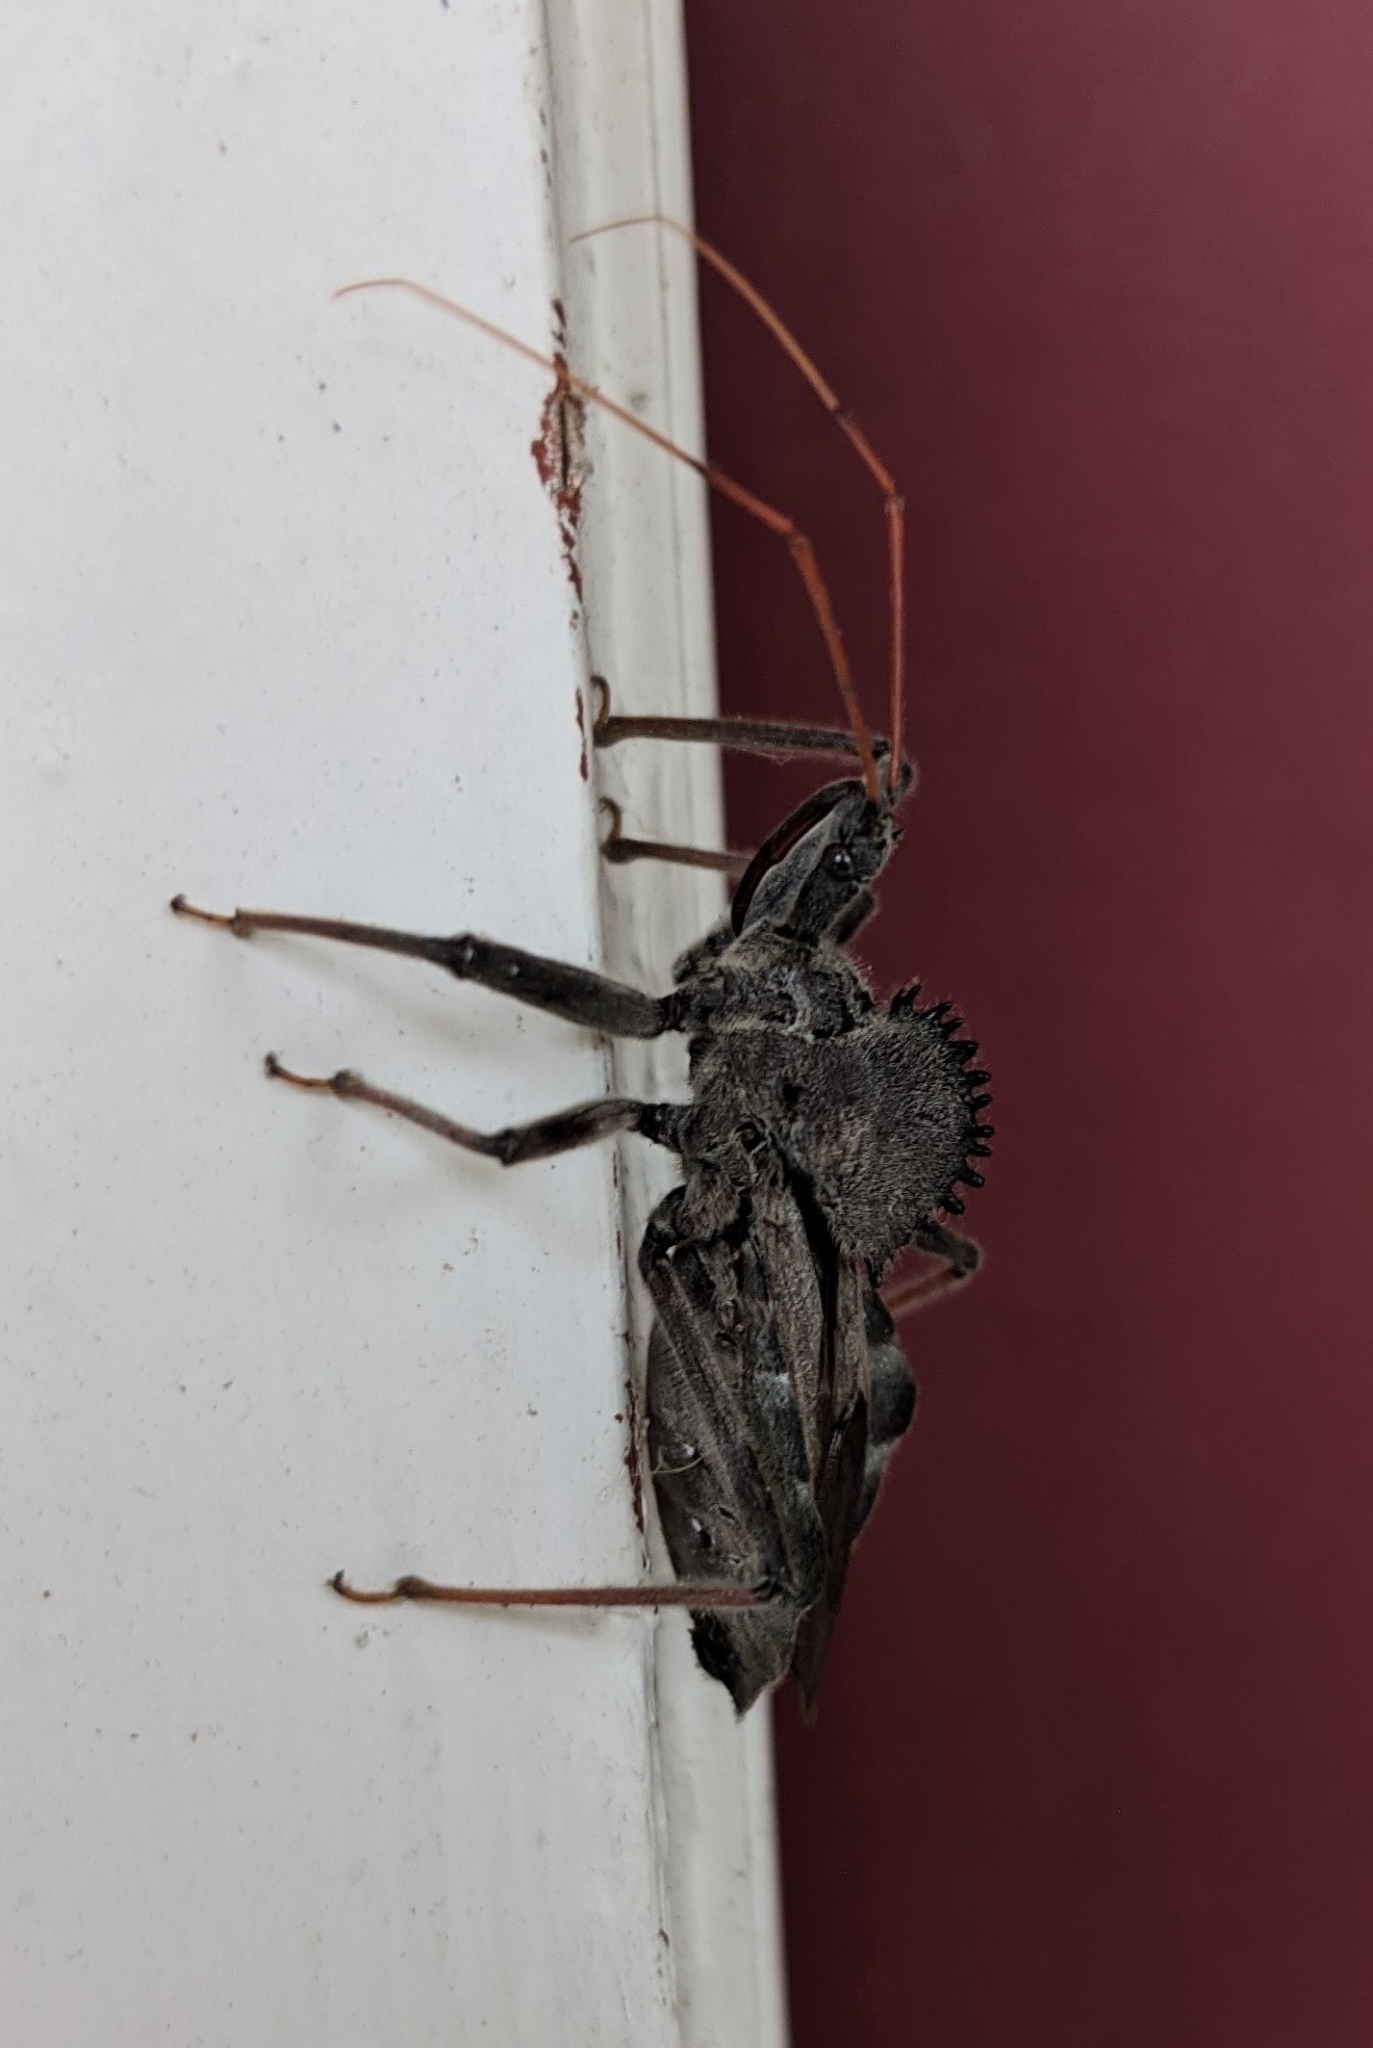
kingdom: Animalia
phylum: Arthropoda
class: Insecta
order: Hemiptera
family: Reduviidae
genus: Arilus
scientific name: Arilus cristatus
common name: North american wheel bug
